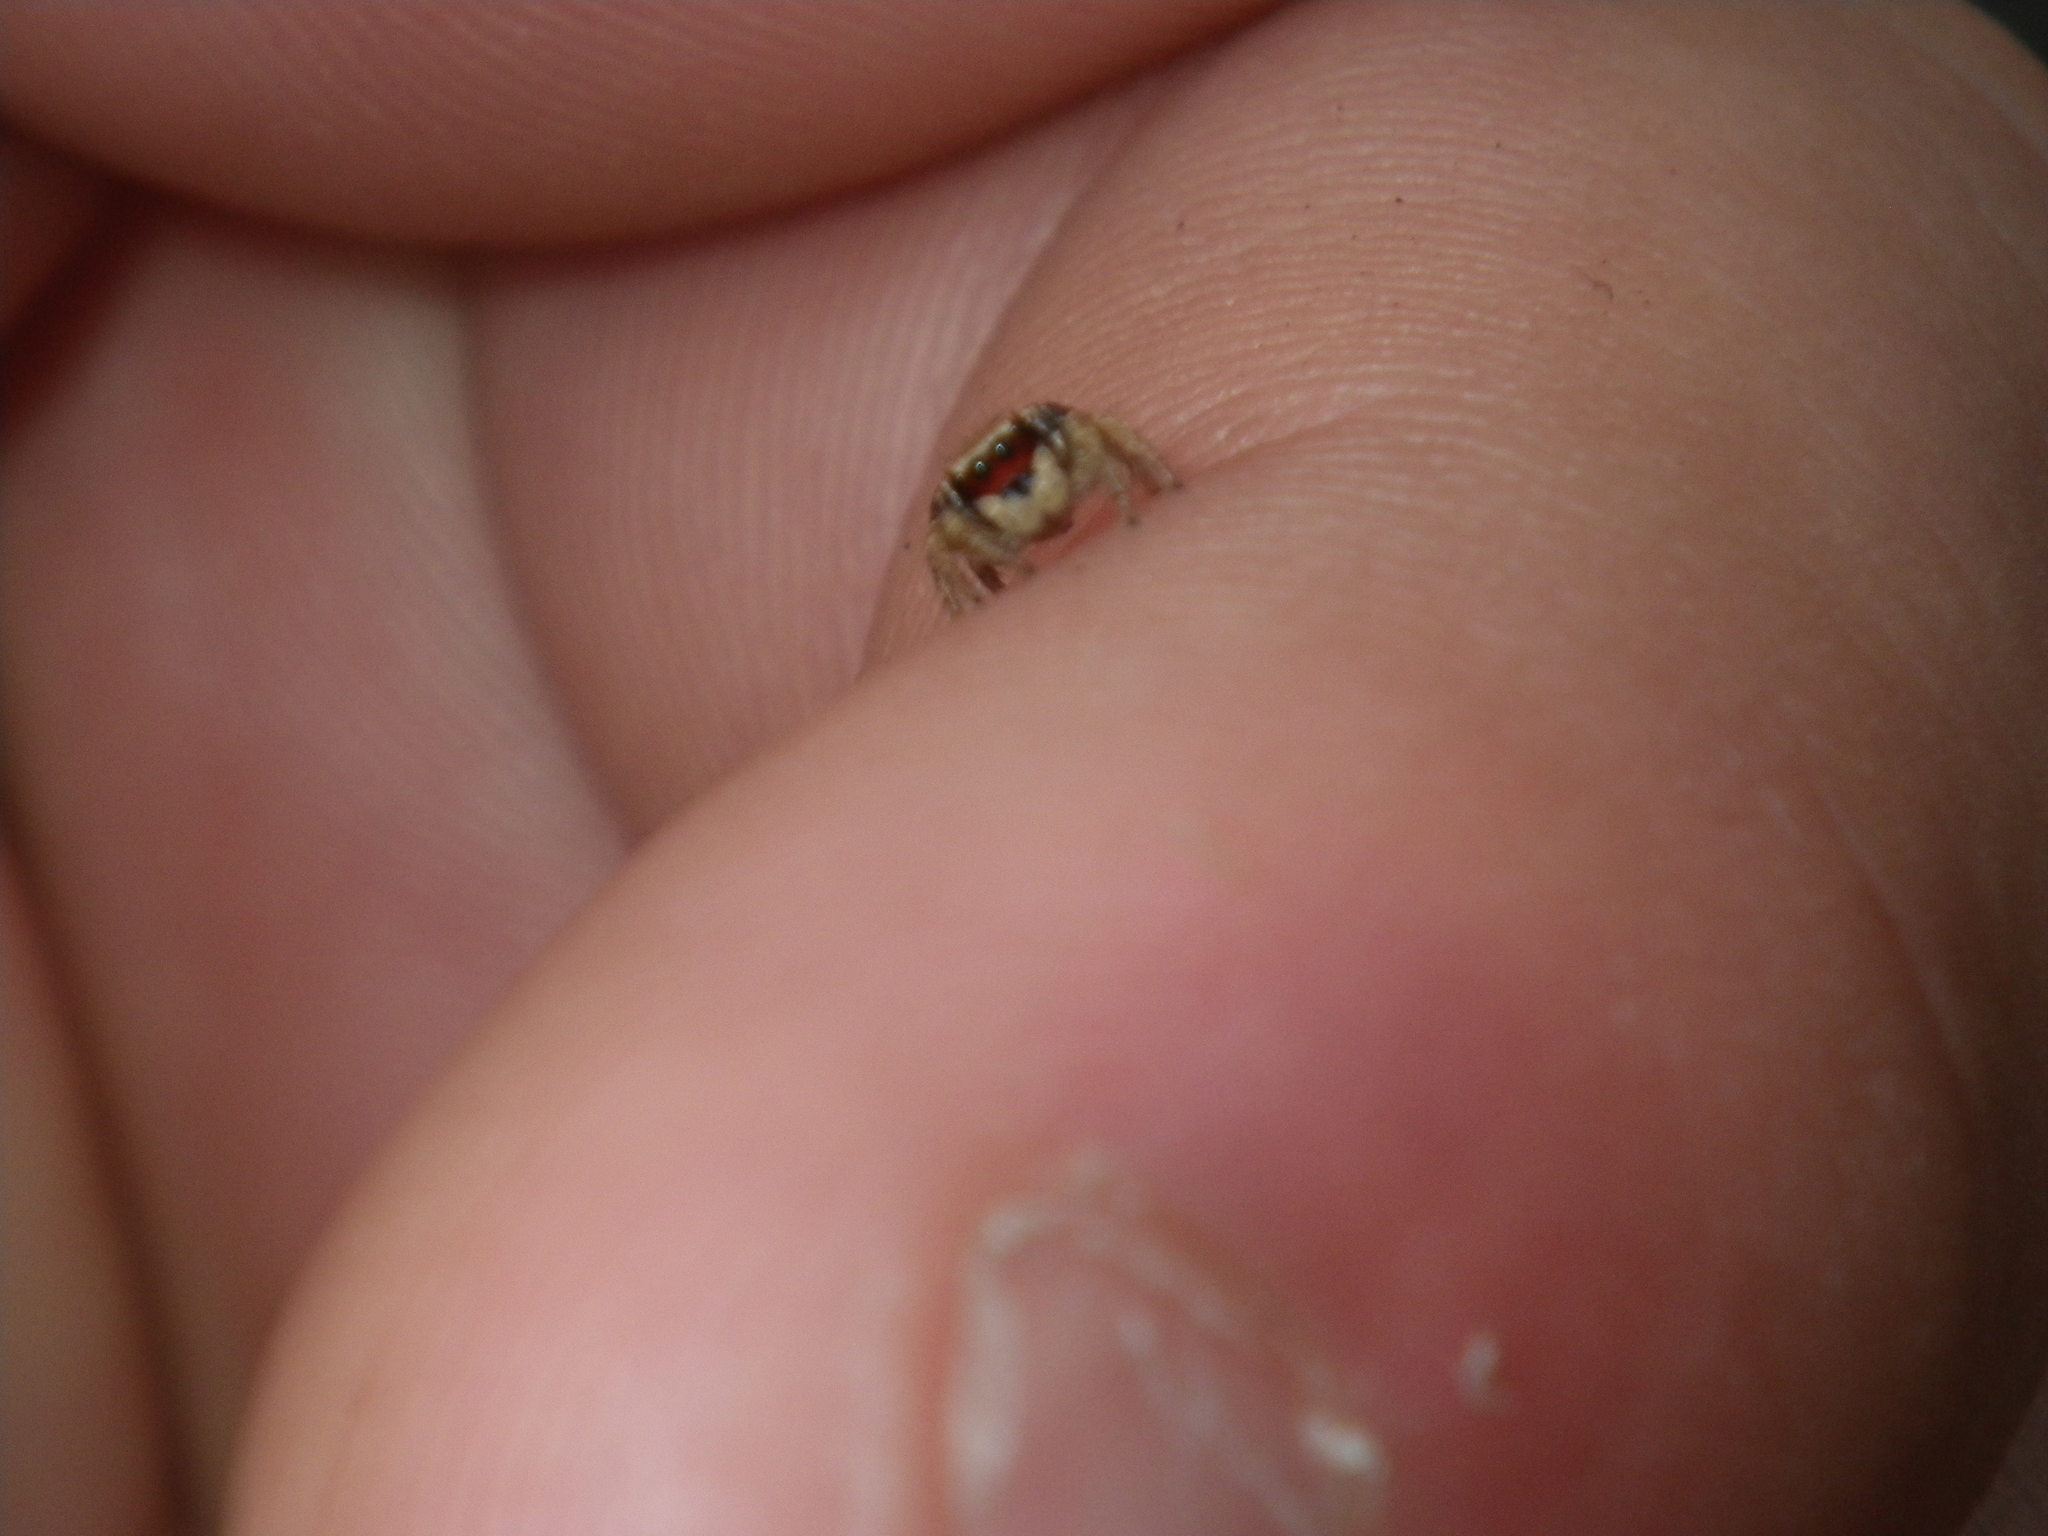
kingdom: Animalia
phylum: Arthropoda
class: Arachnida
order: Araneae
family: Salticidae
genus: Habronattus
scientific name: Habronattus pyrrithrix
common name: Jumping spider
